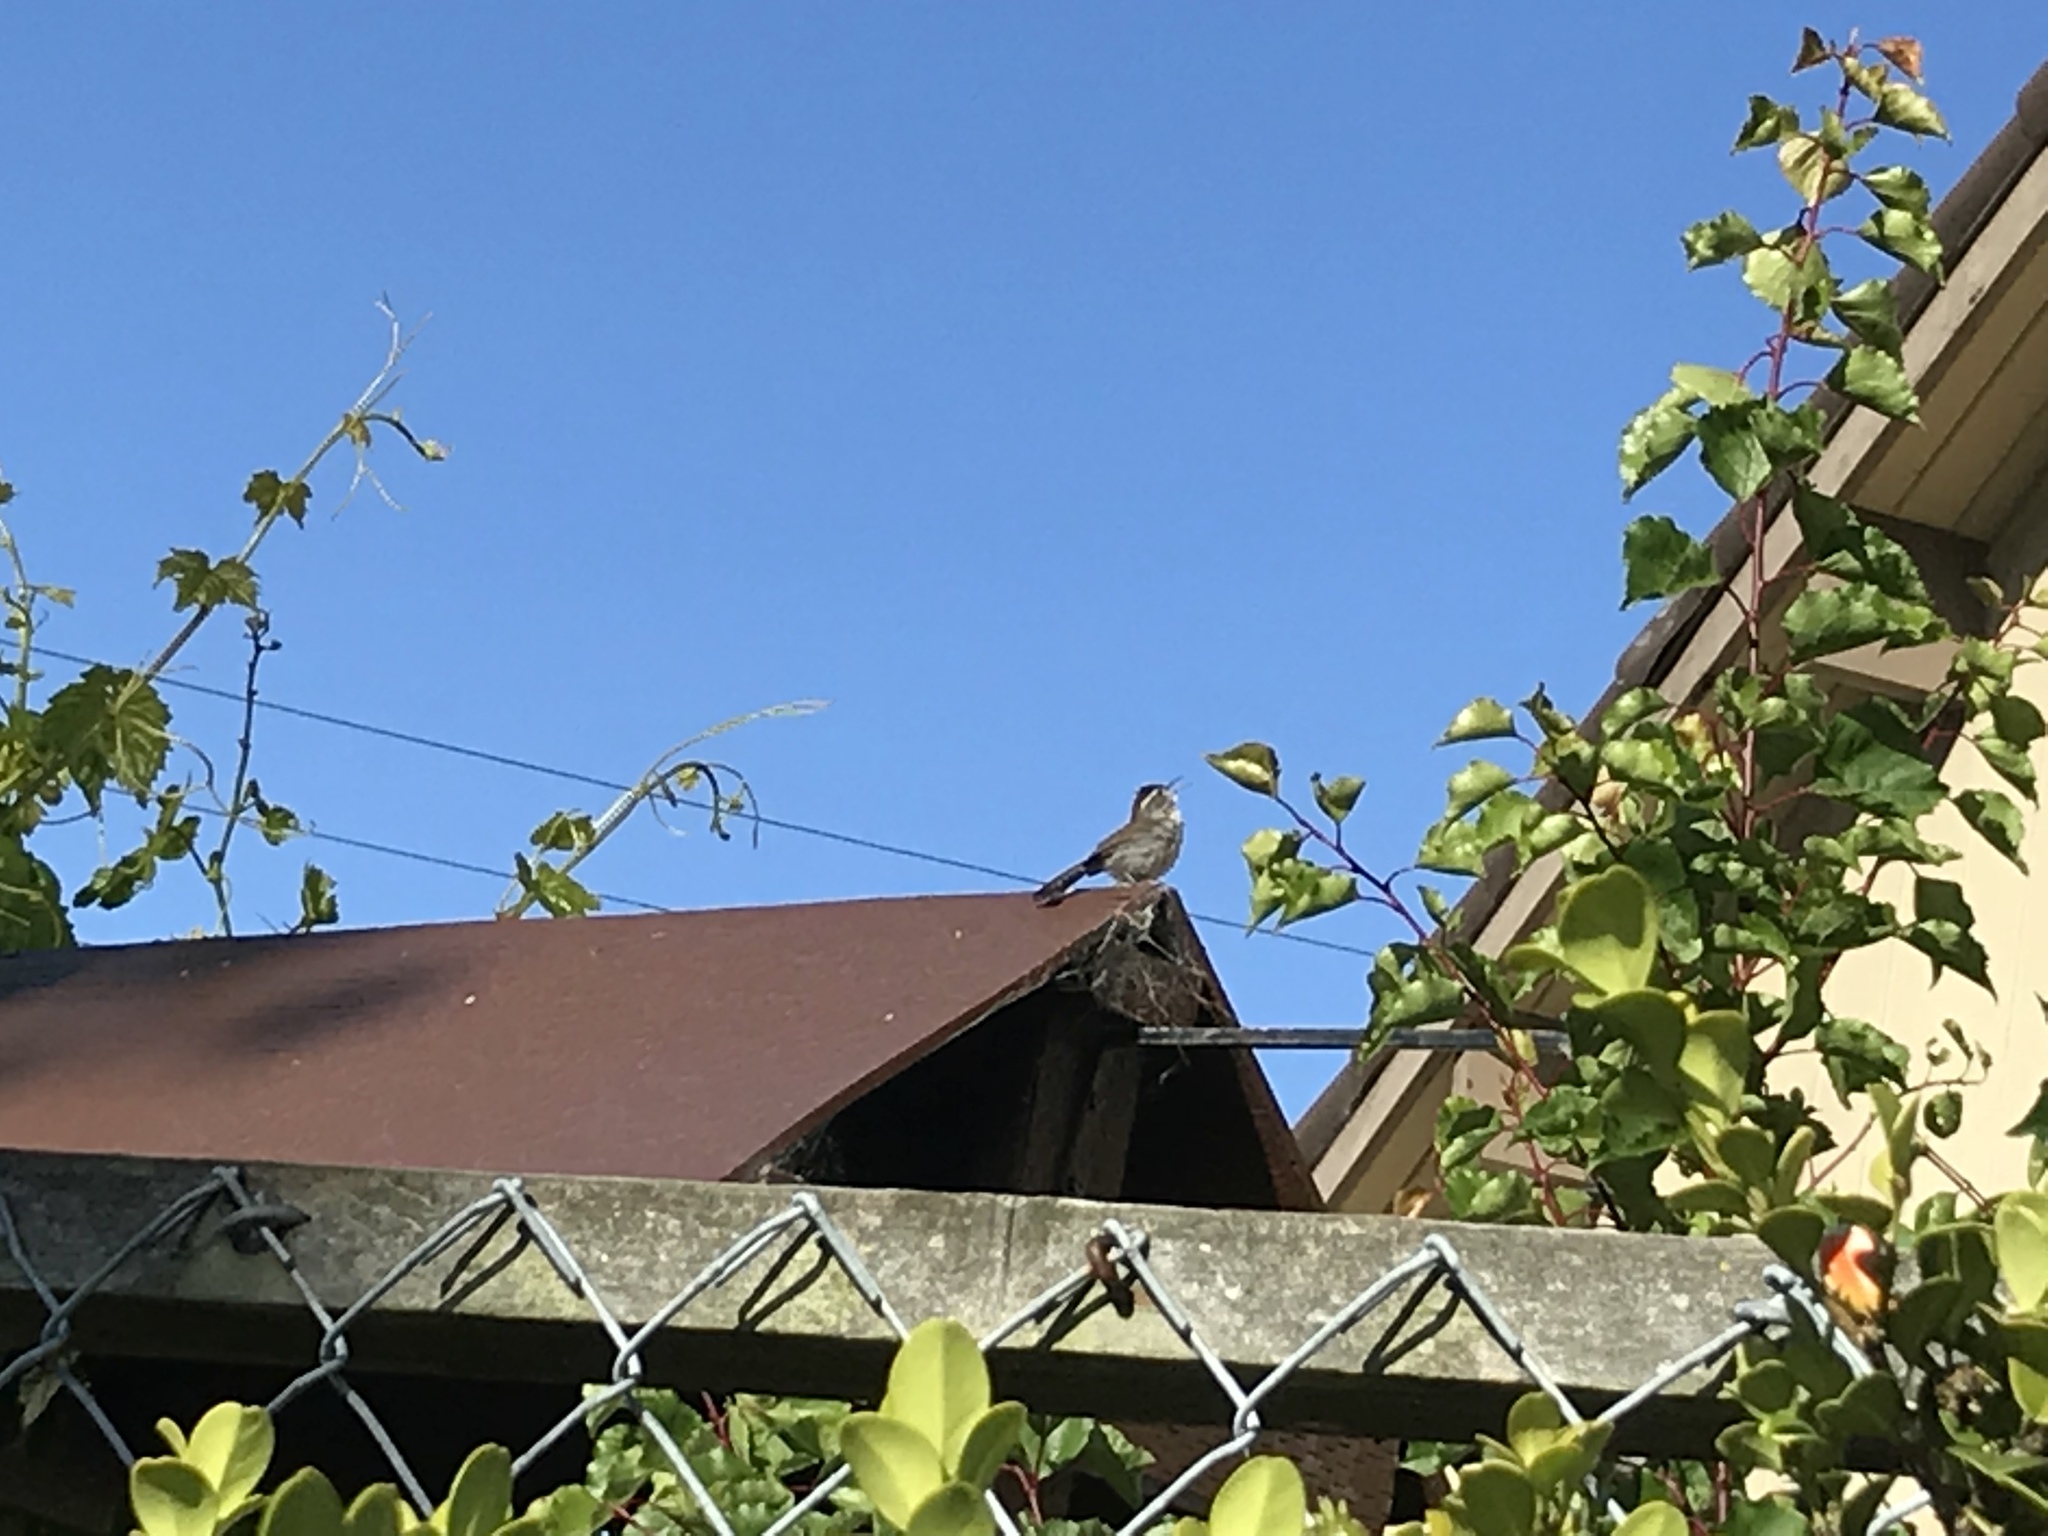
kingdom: Animalia
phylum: Chordata
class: Aves
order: Passeriformes
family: Troglodytidae
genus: Thryomanes
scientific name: Thryomanes bewickii
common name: Bewick's wren
